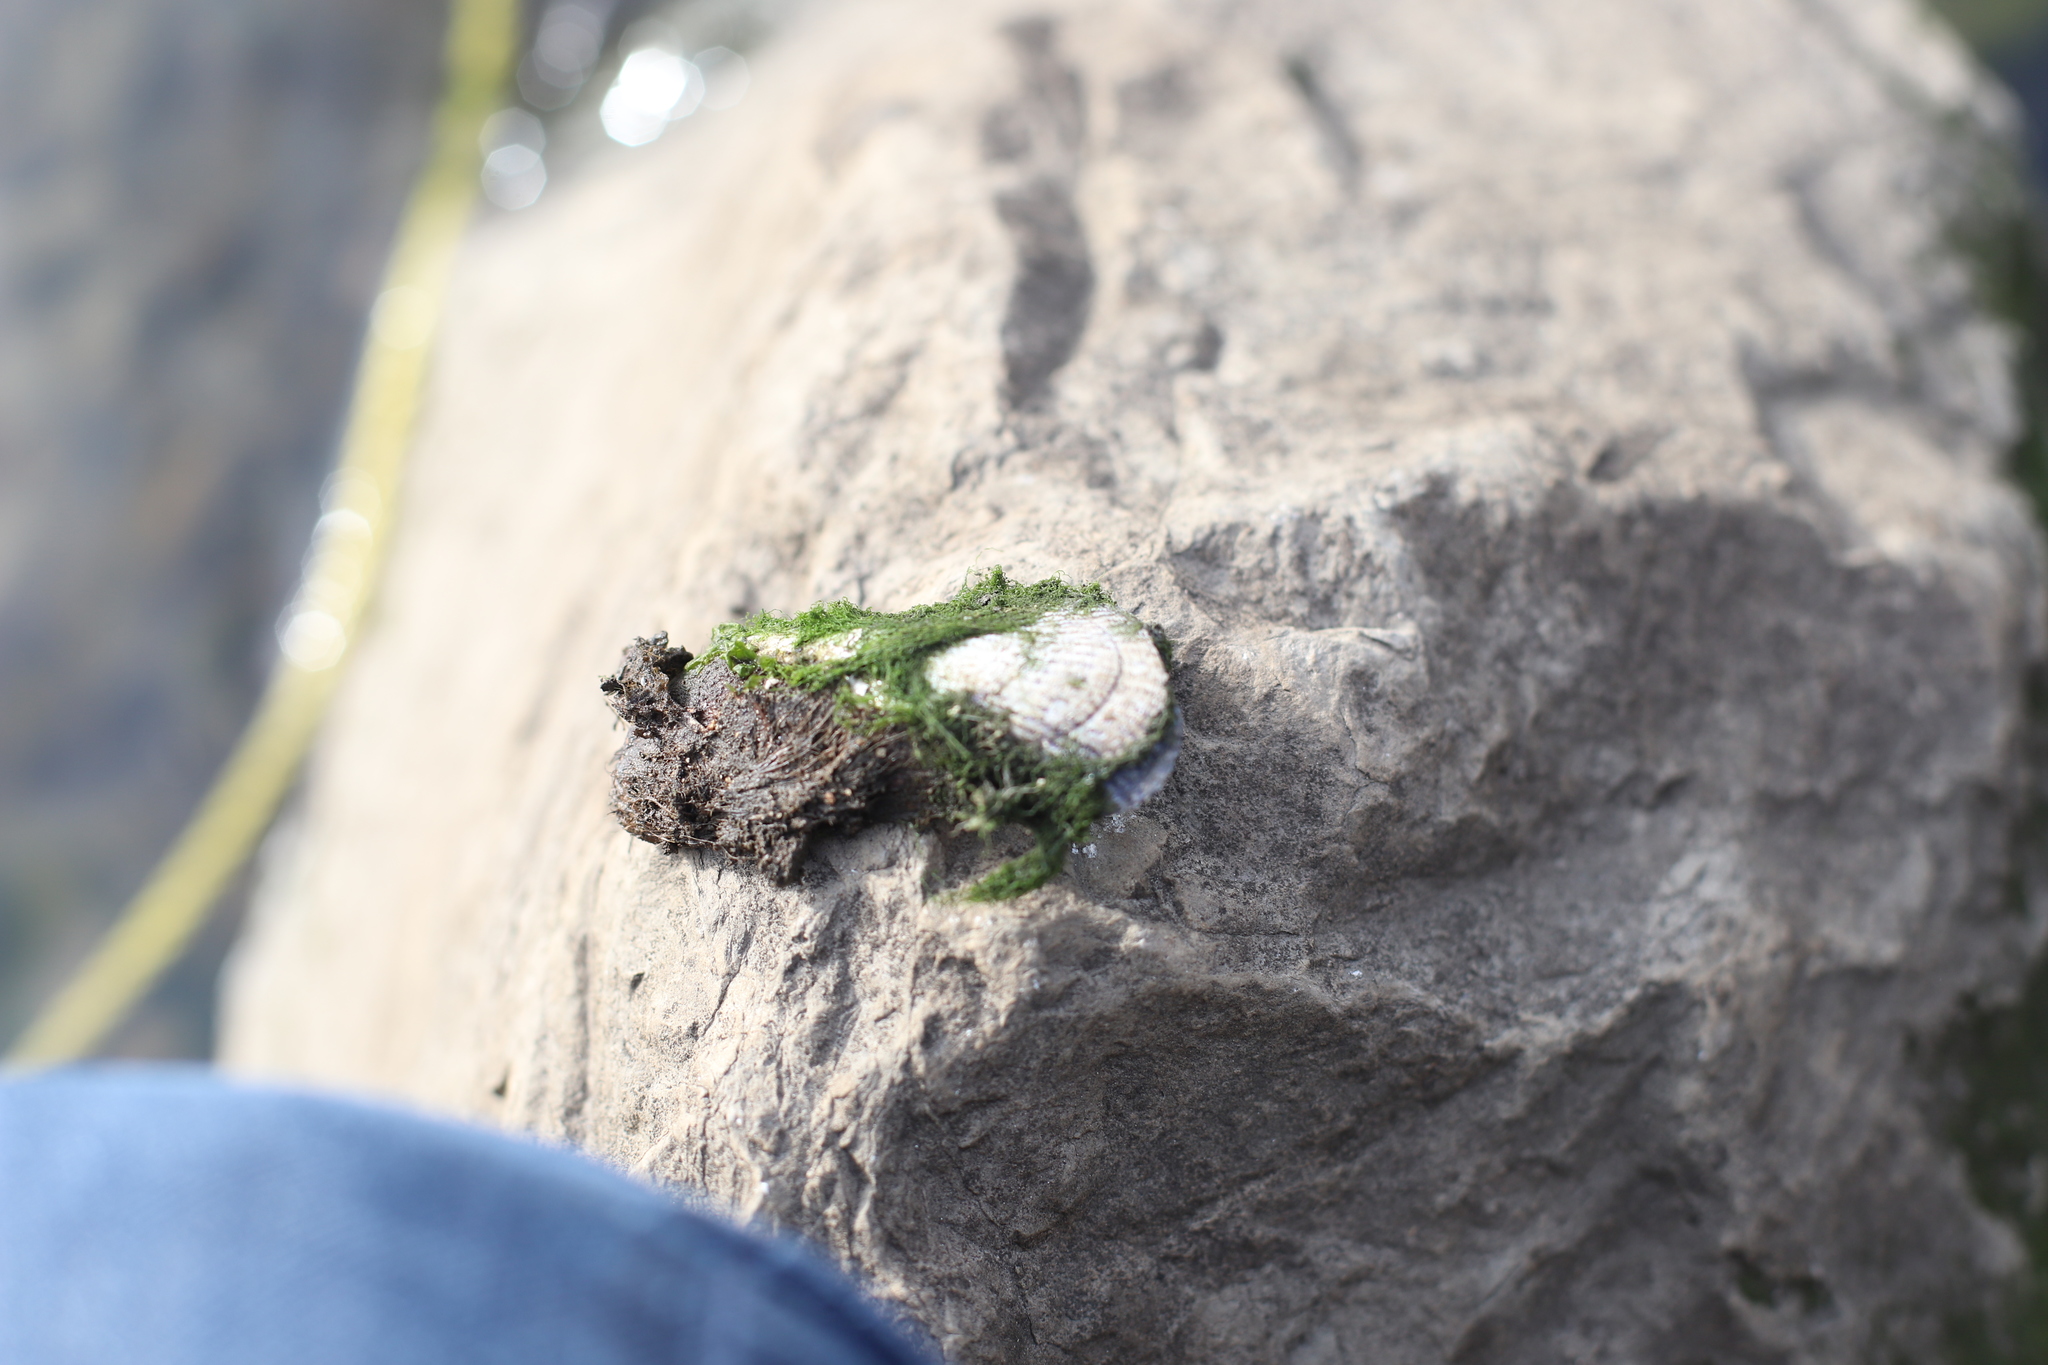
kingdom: Animalia
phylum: Mollusca
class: Bivalvia
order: Mytilida
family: Mytilidae
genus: Geukensia
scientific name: Geukensia demissa
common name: Ribbed mussel
